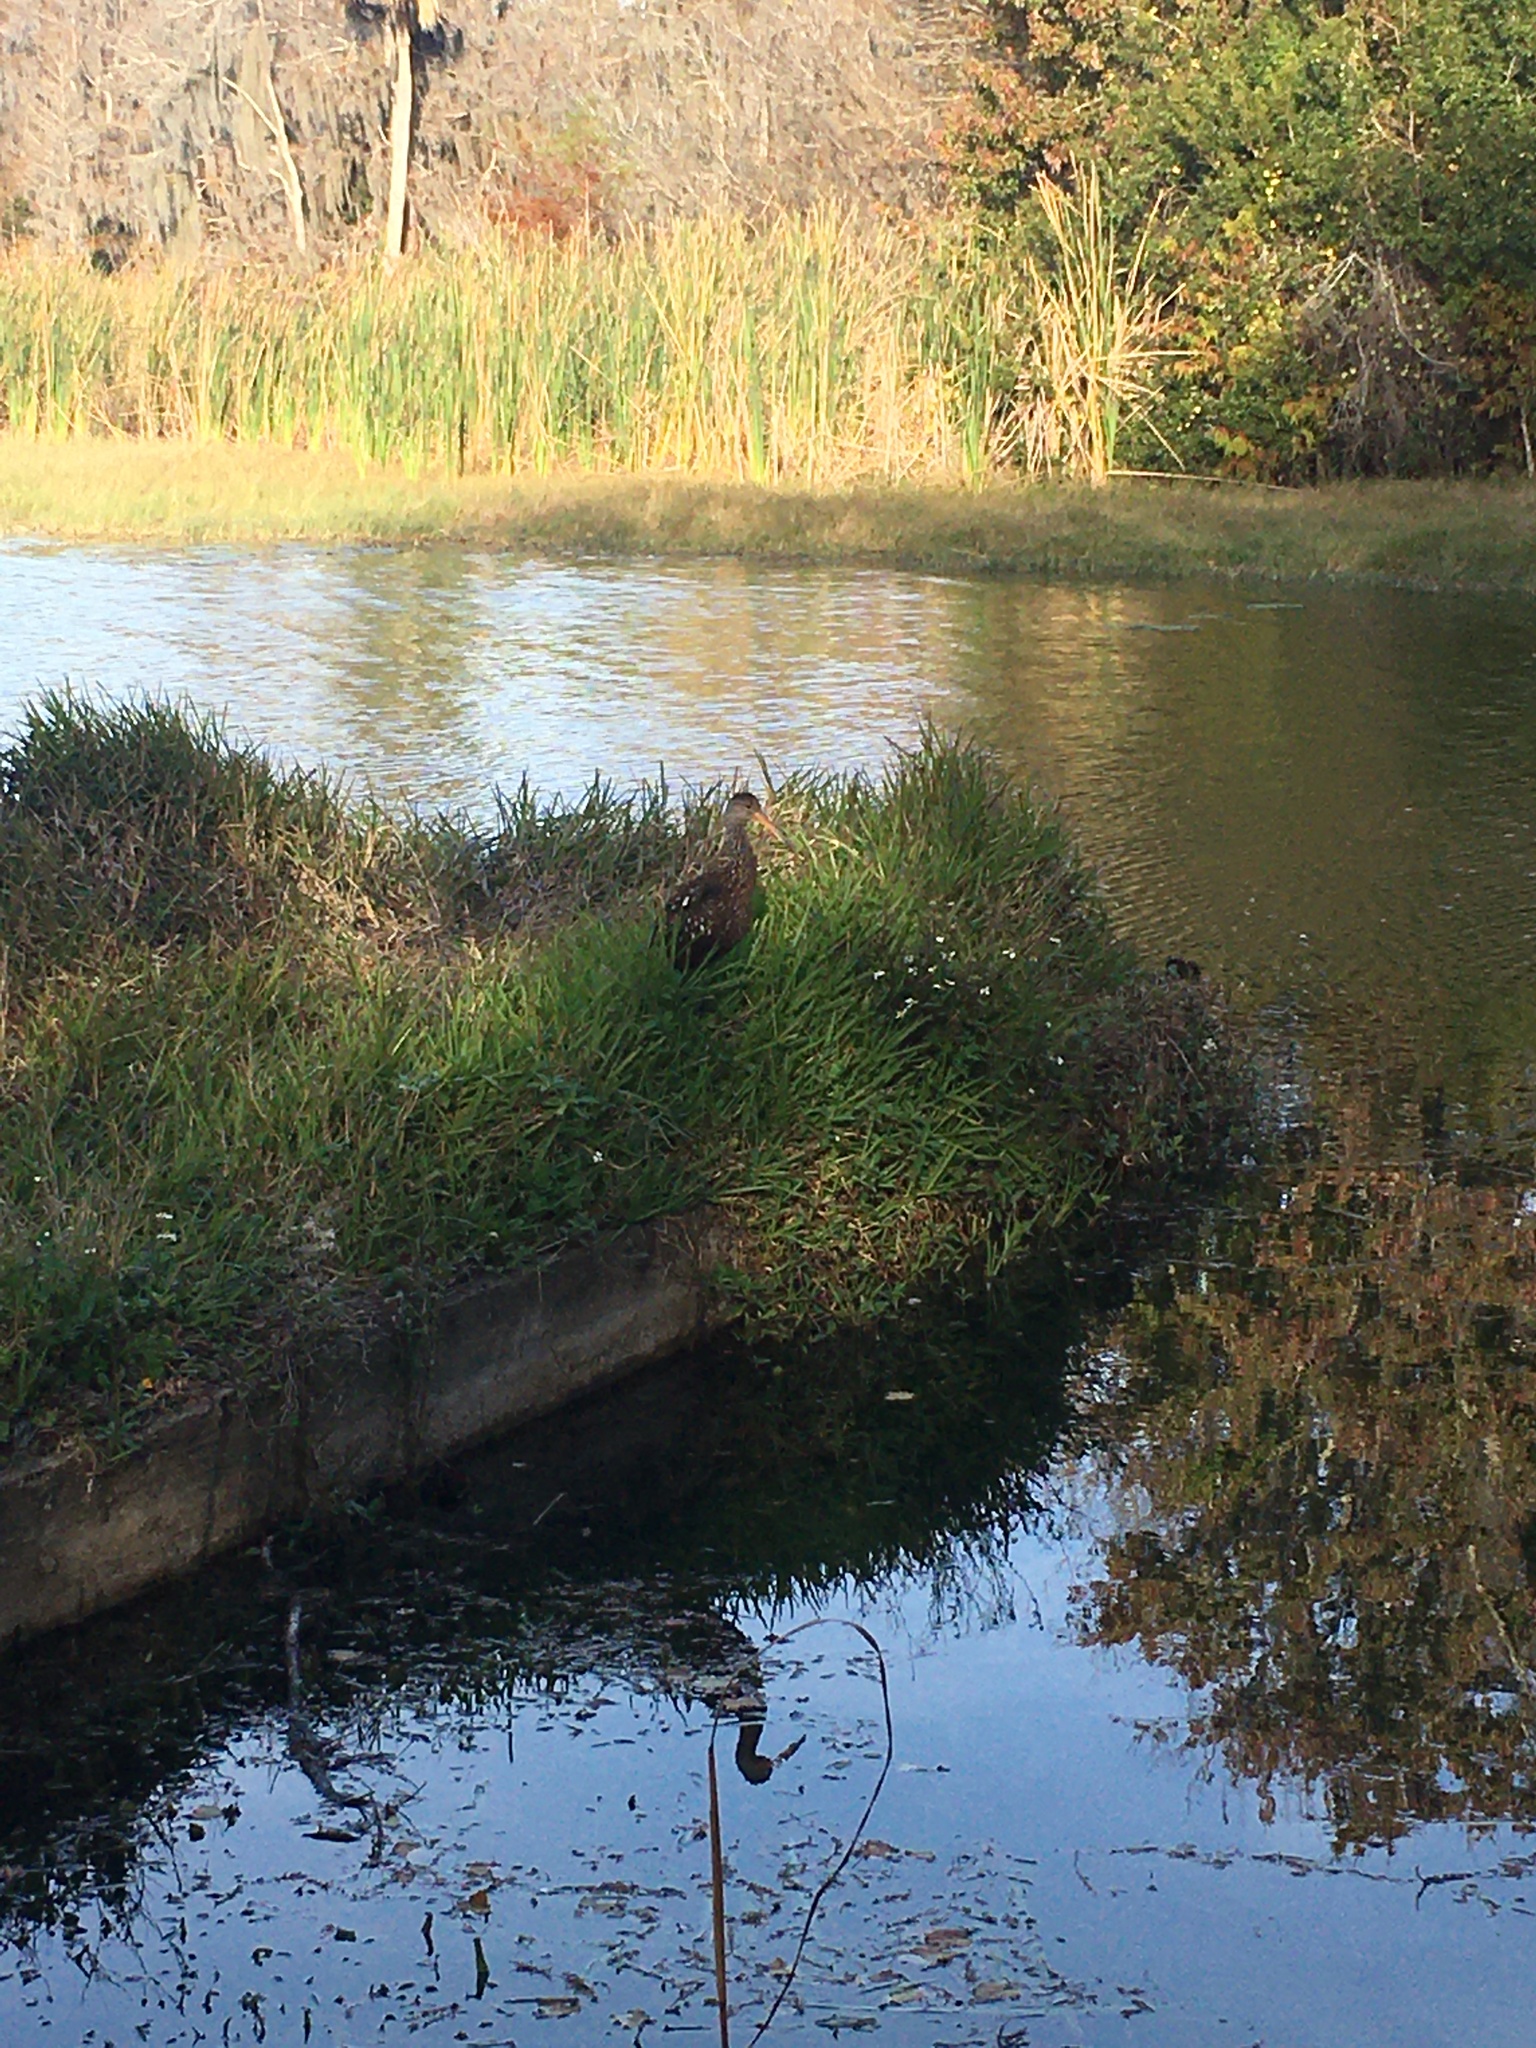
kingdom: Animalia
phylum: Chordata
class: Aves
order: Gruiformes
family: Aramidae
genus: Aramus
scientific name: Aramus guarauna
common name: Limpkin
